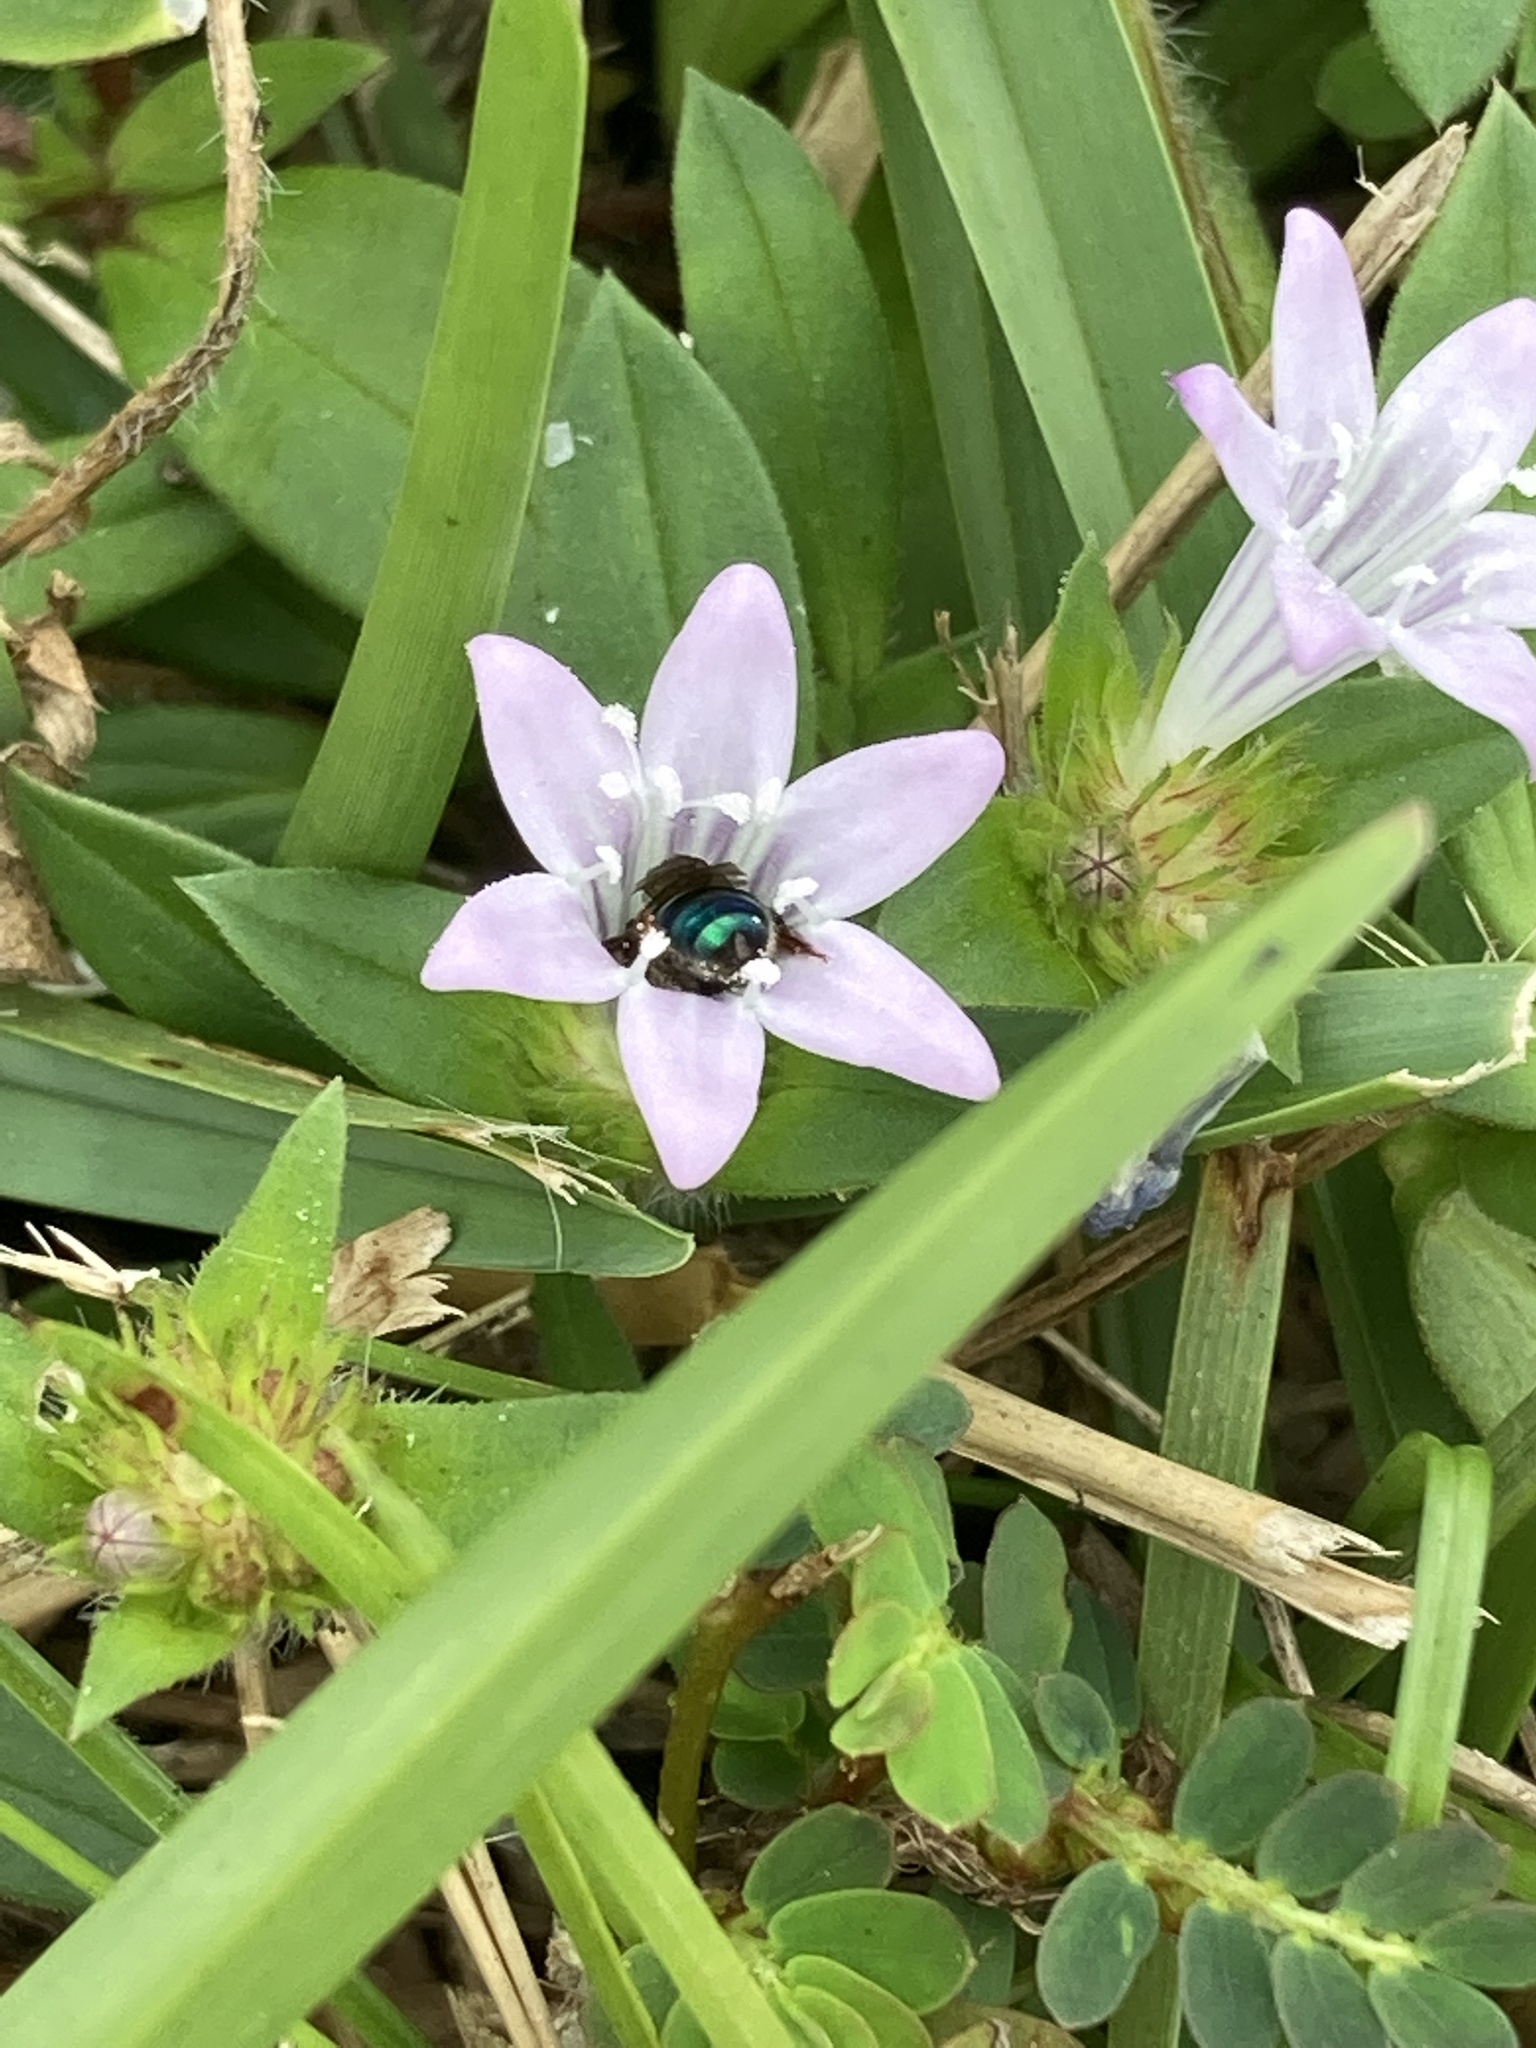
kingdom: Animalia
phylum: Arthropoda
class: Insecta
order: Hymenoptera
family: Halictidae
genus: Agapostemon
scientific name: Agapostemon splendens
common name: Brown-winged striped sweat bee
